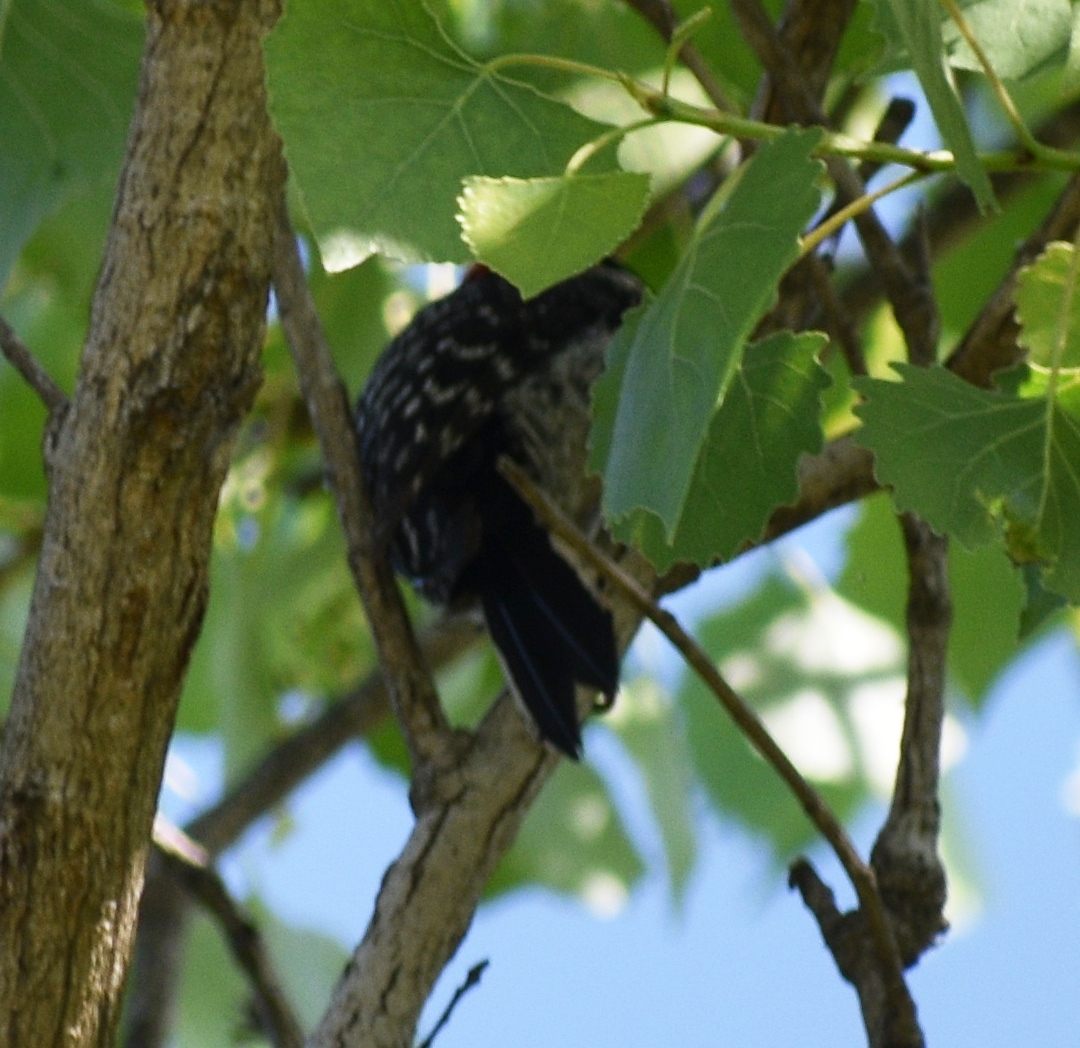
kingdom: Animalia
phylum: Chordata
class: Aves
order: Piciformes
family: Picidae
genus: Dryobates
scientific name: Dryobates nuttallii
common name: Nuttall's woodpecker
